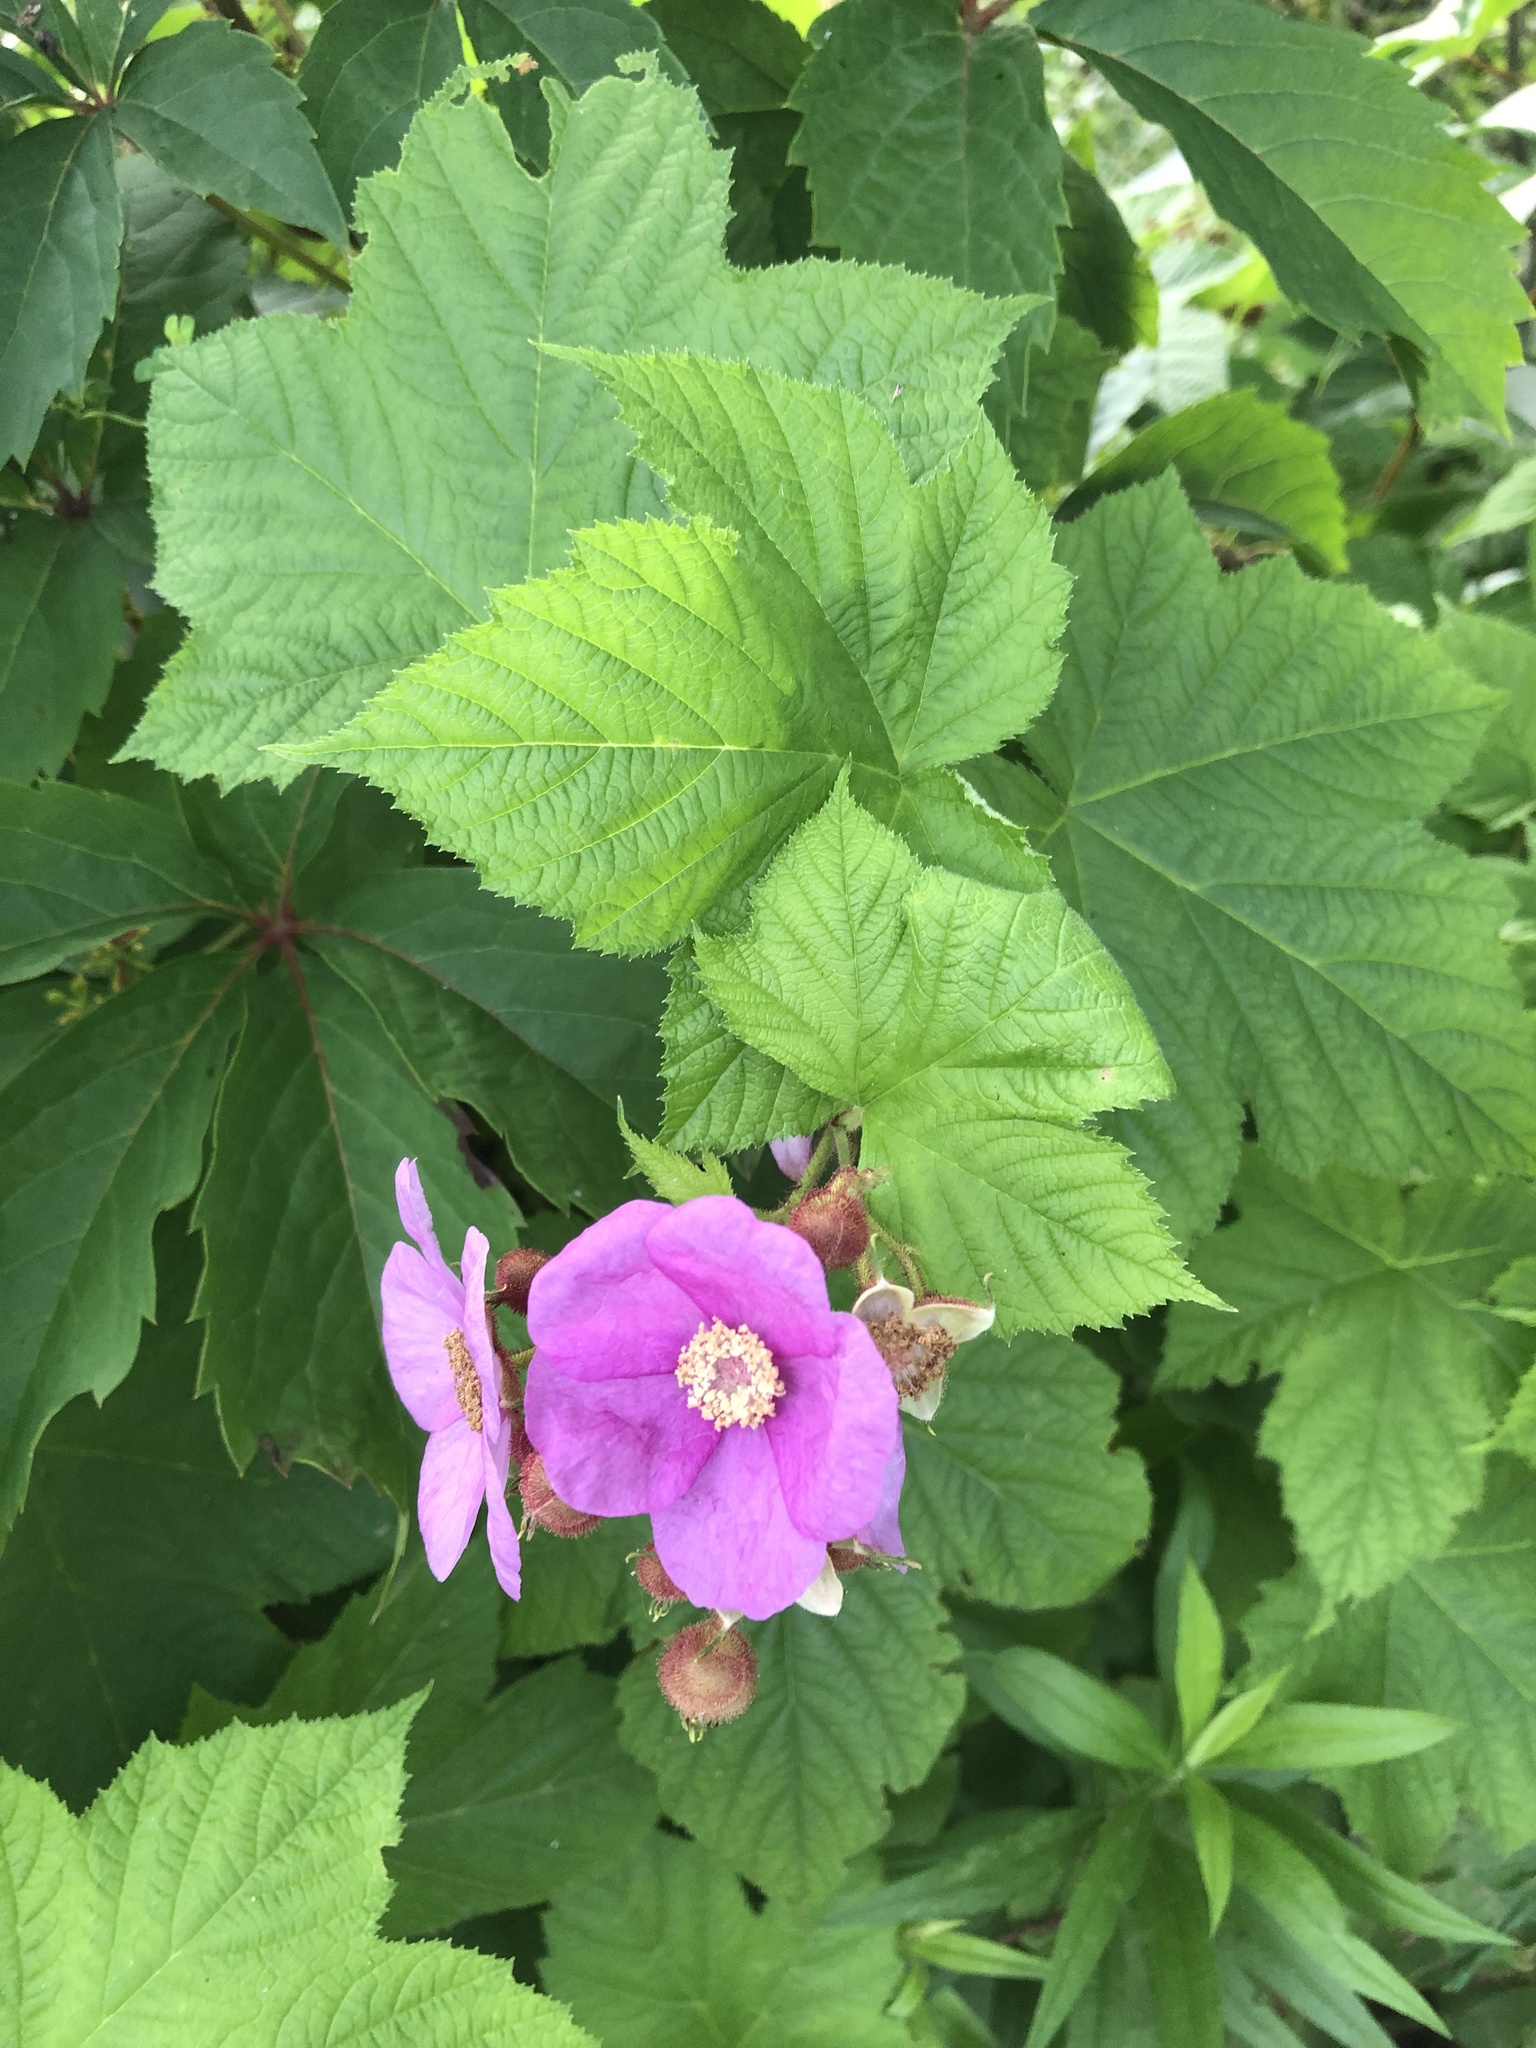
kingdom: Plantae
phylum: Tracheophyta
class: Magnoliopsida
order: Rosales
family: Rosaceae
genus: Rubus
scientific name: Rubus odoratus
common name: Purple-flowered raspberry
